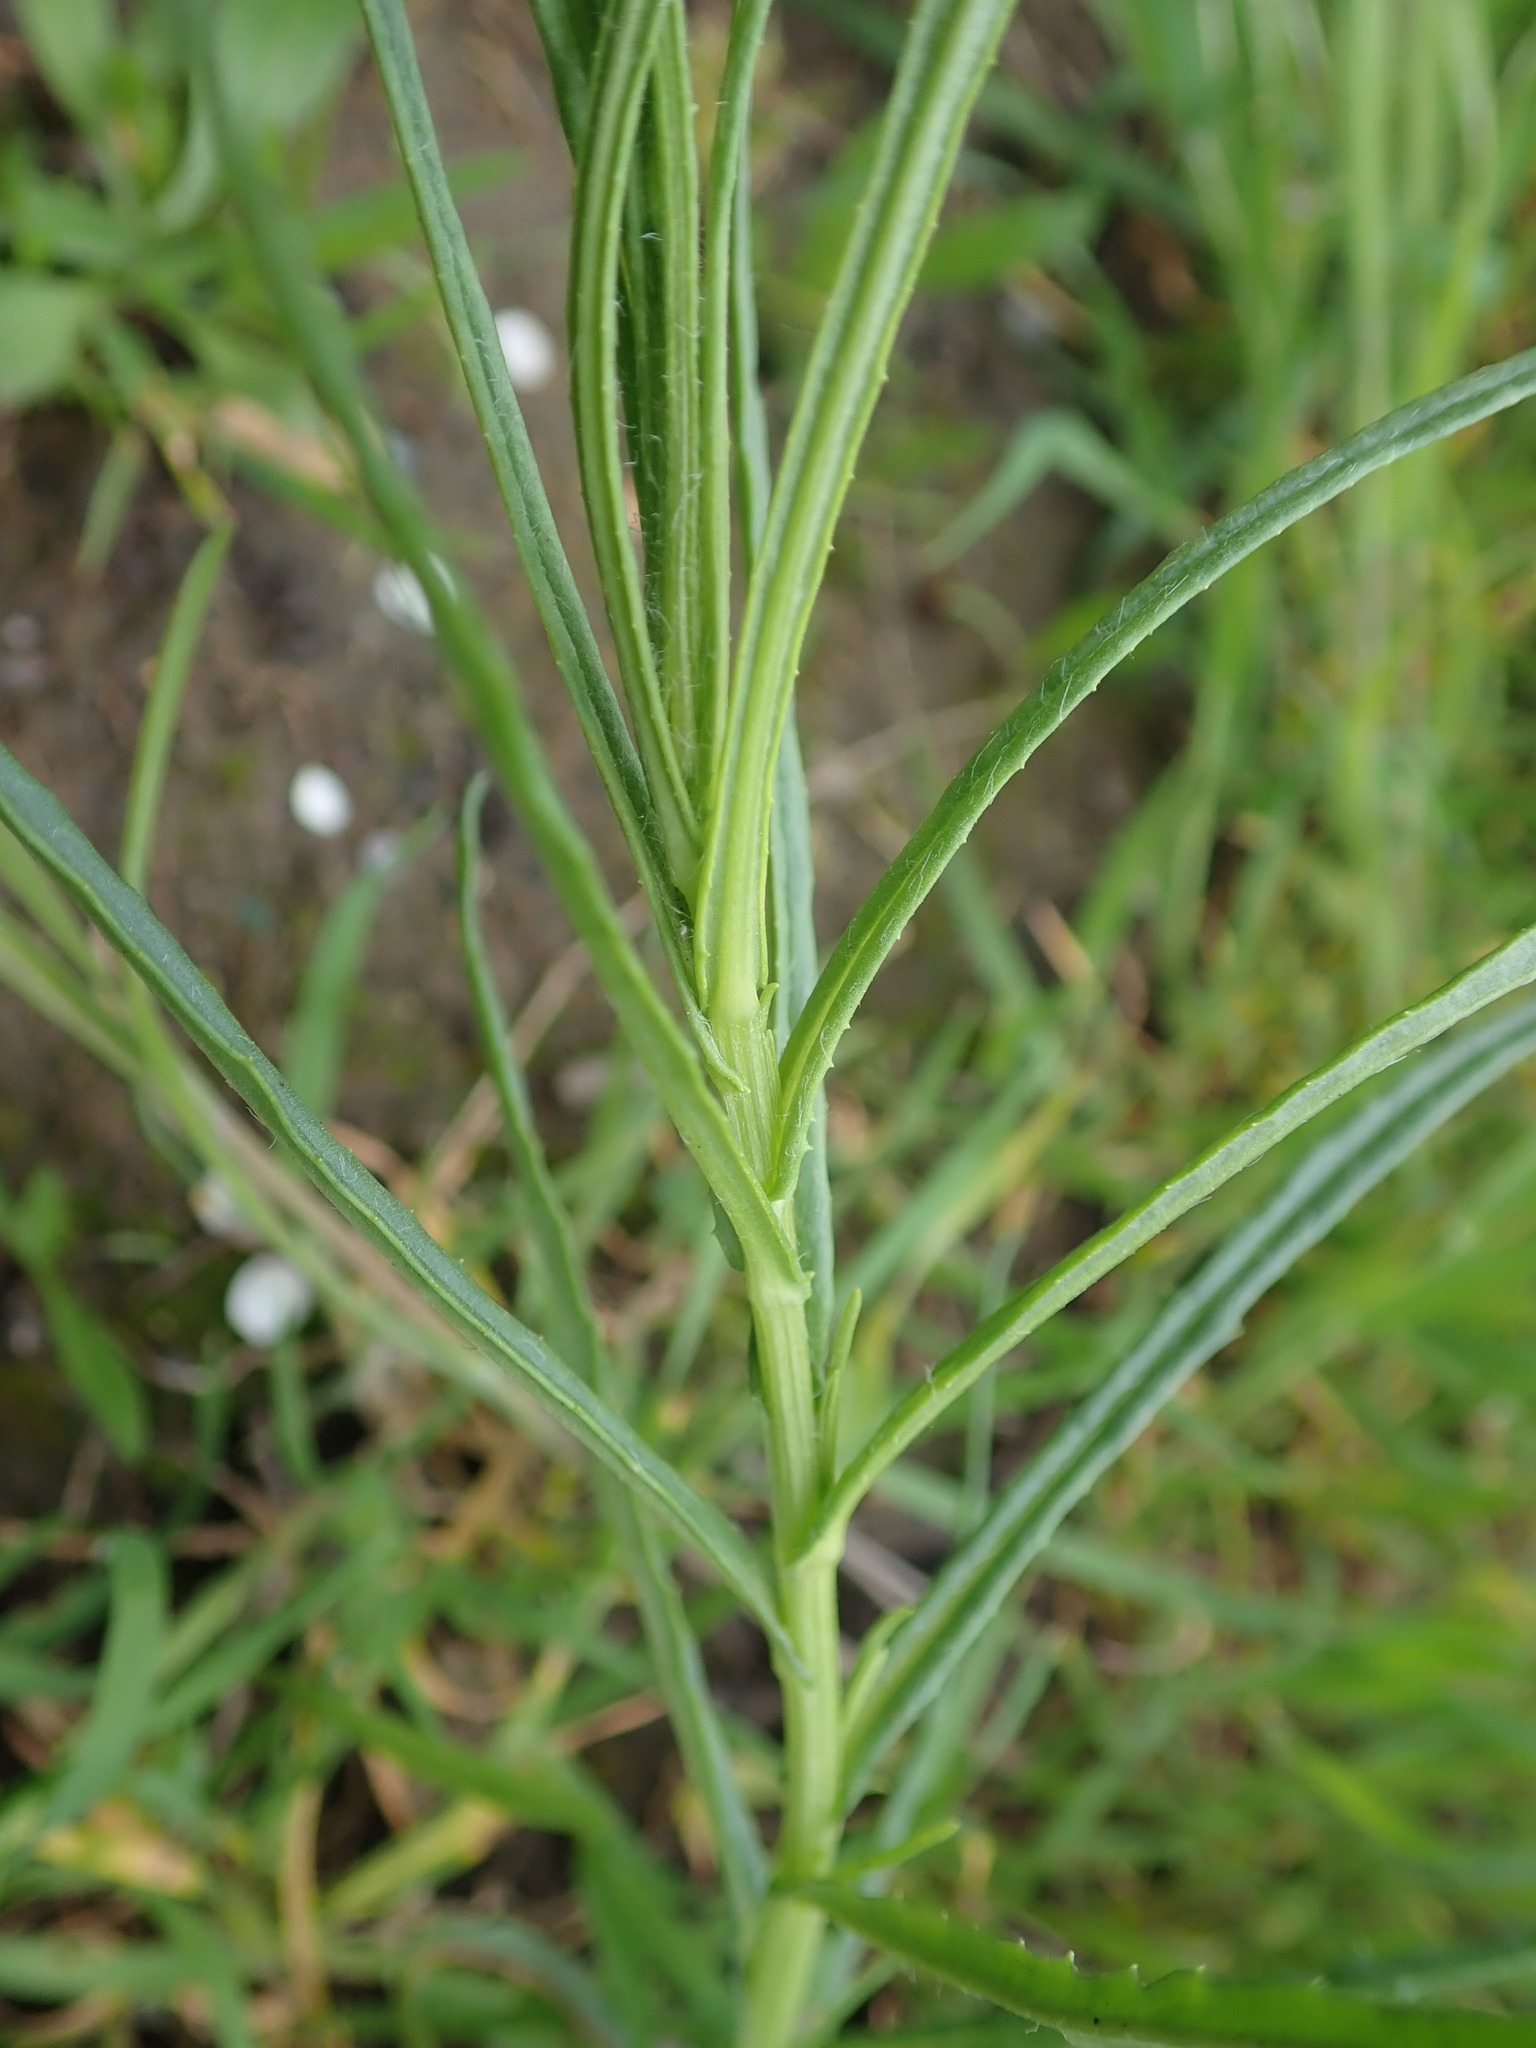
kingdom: Plantae
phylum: Tracheophyta
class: Magnoliopsida
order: Asterales
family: Asteraceae
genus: Senecio
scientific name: Senecio inaequidens
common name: Narrow-leaved ragwort
